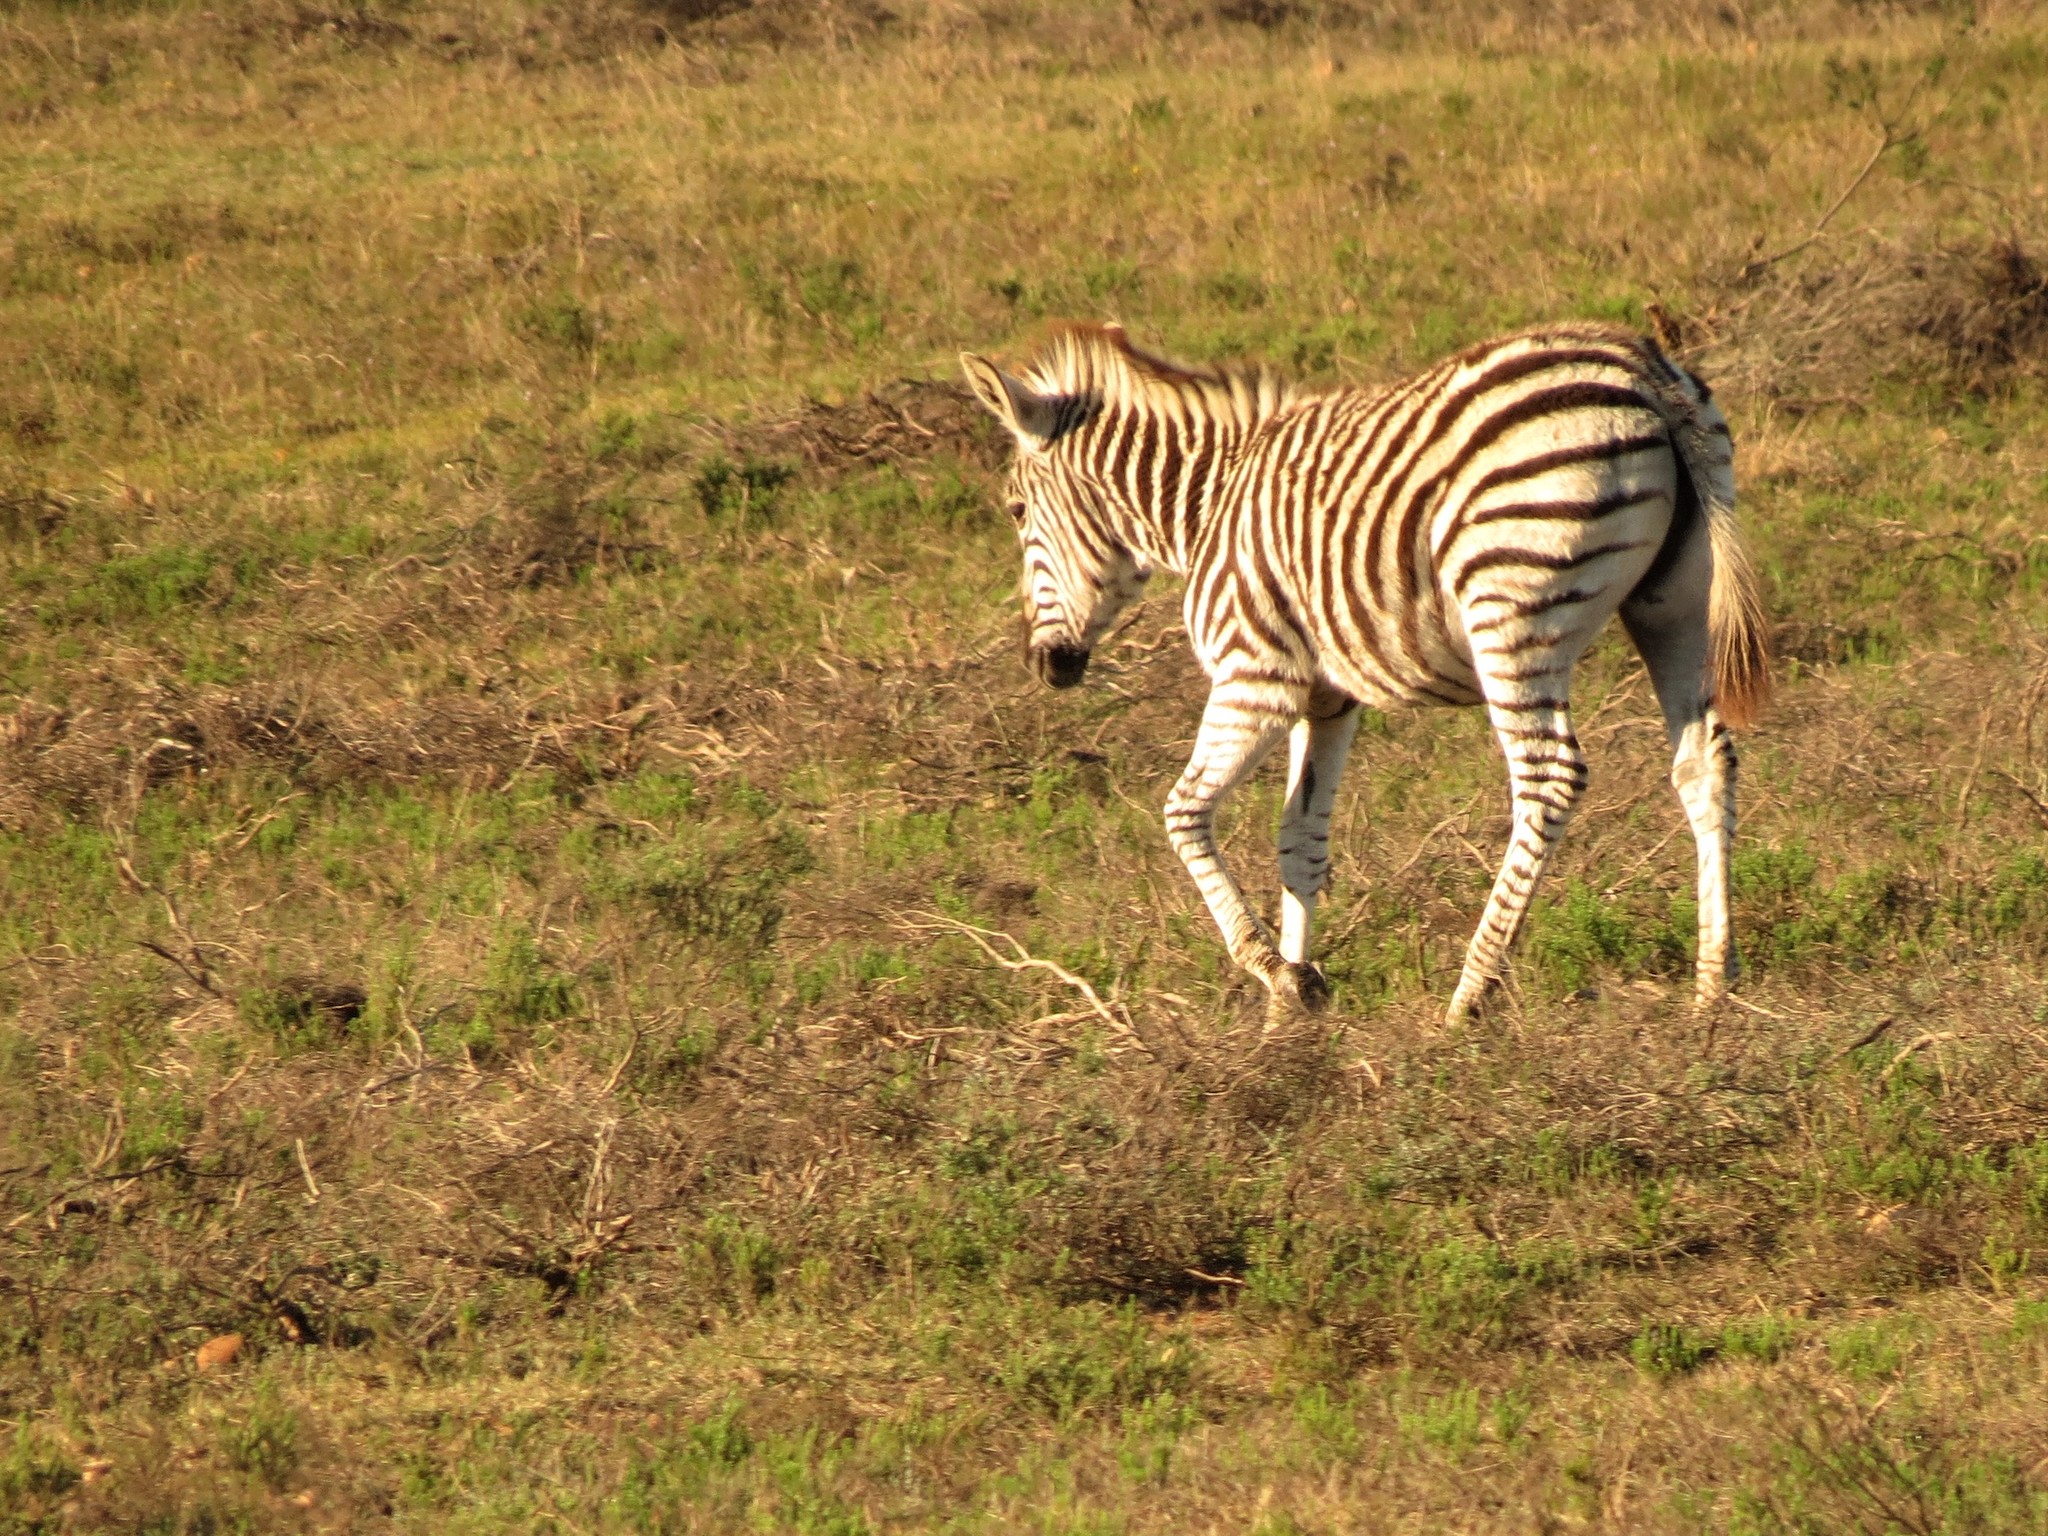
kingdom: Animalia
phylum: Chordata
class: Mammalia
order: Perissodactyla
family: Equidae
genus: Equus
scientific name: Equus quagga
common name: Plains zebra
